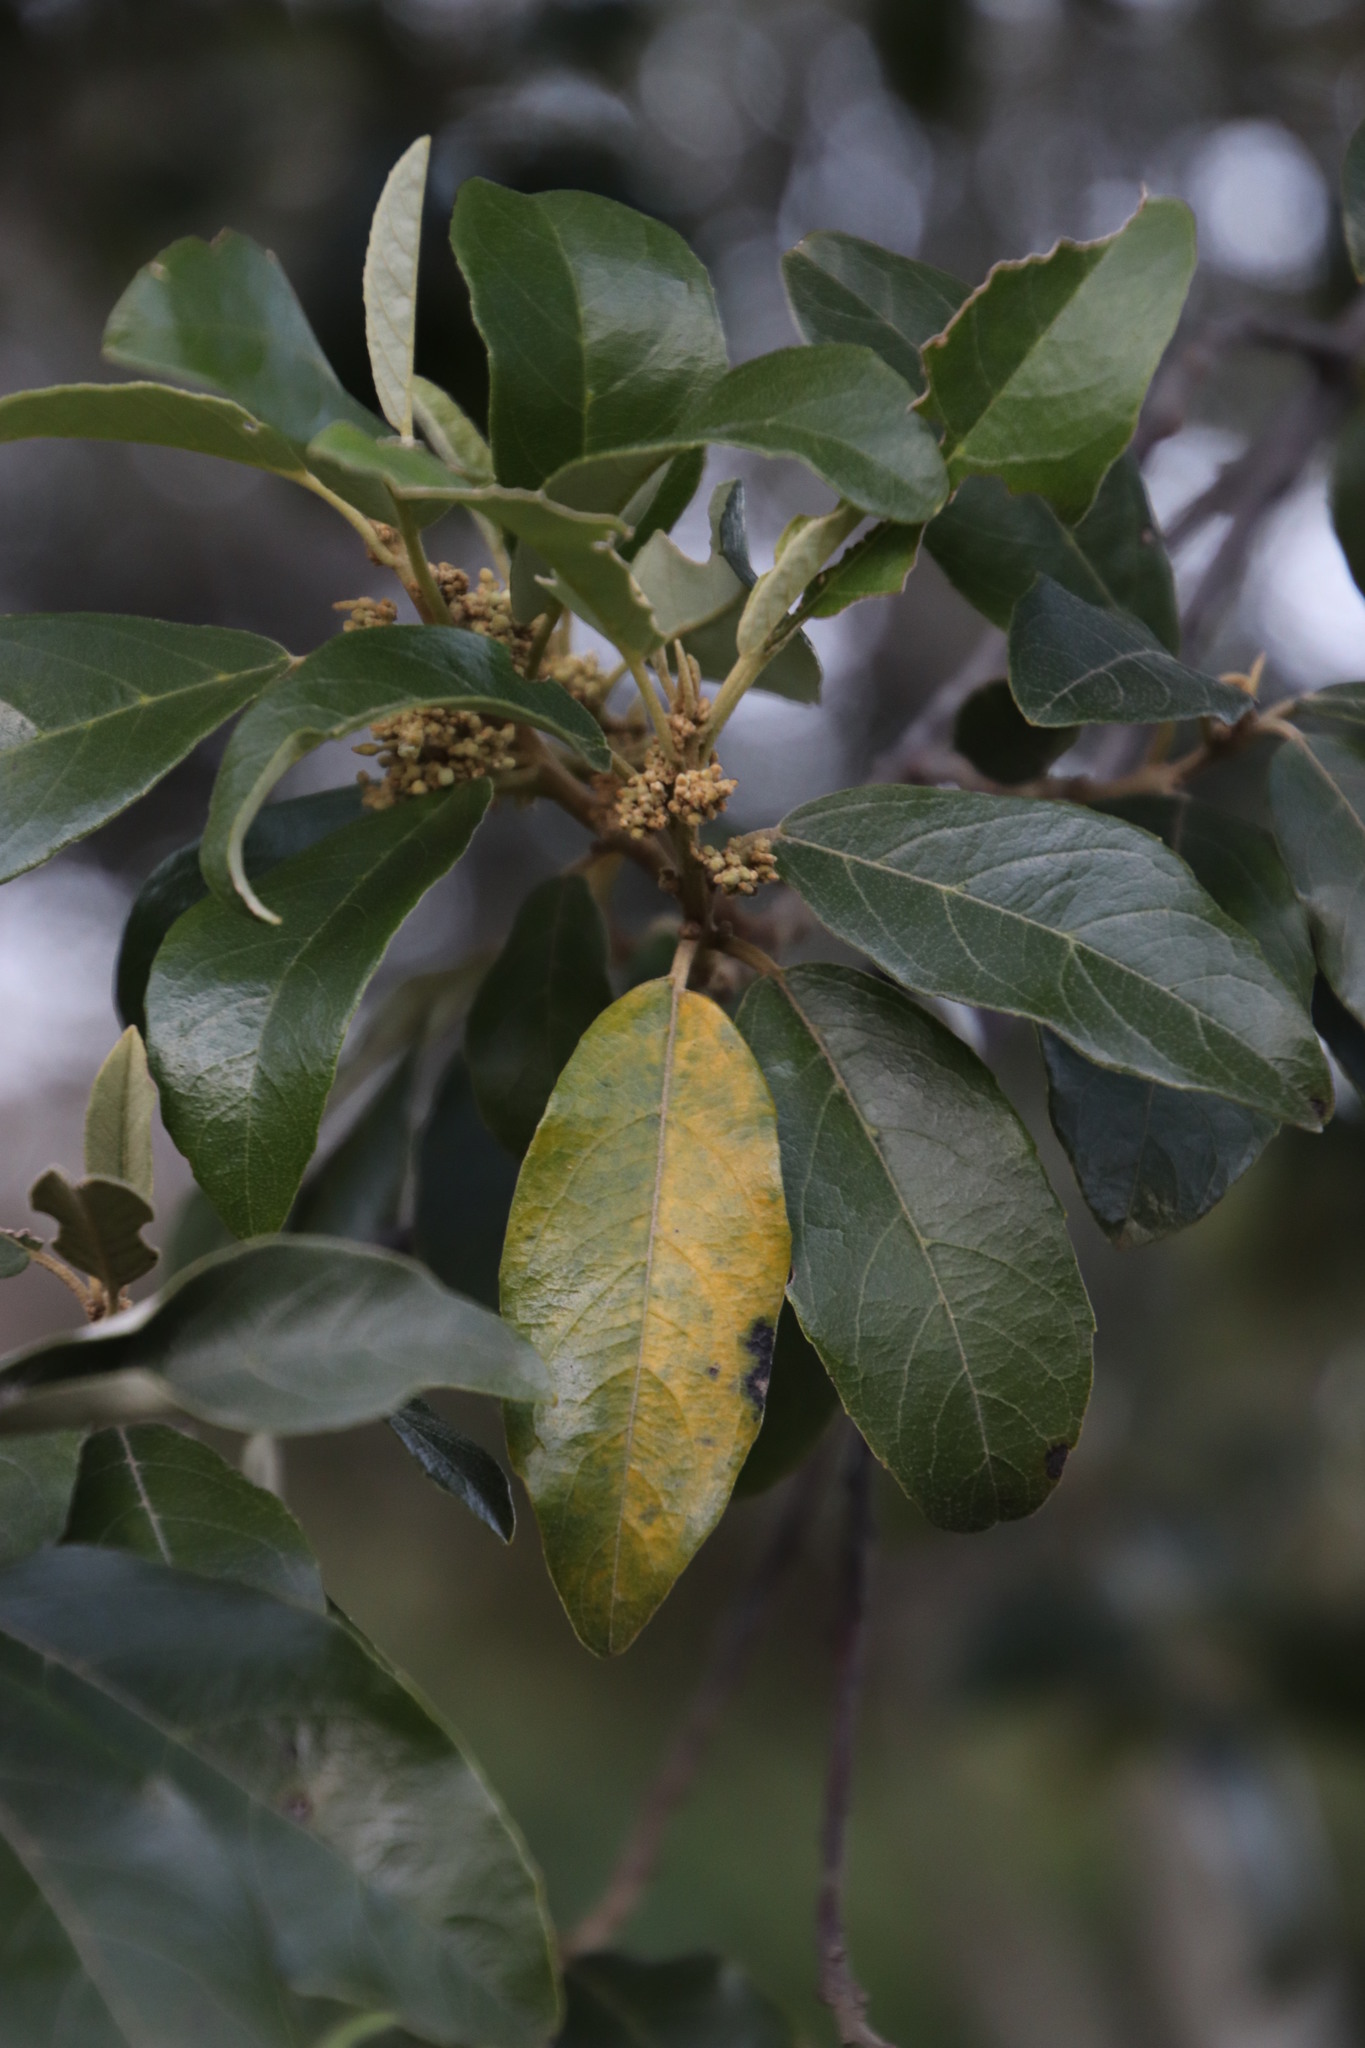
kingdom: Plantae
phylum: Tracheophyta
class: Magnoliopsida
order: Malpighiales
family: Achariaceae
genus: Kiggelaria
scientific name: Kiggelaria africana
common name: Wild peach
